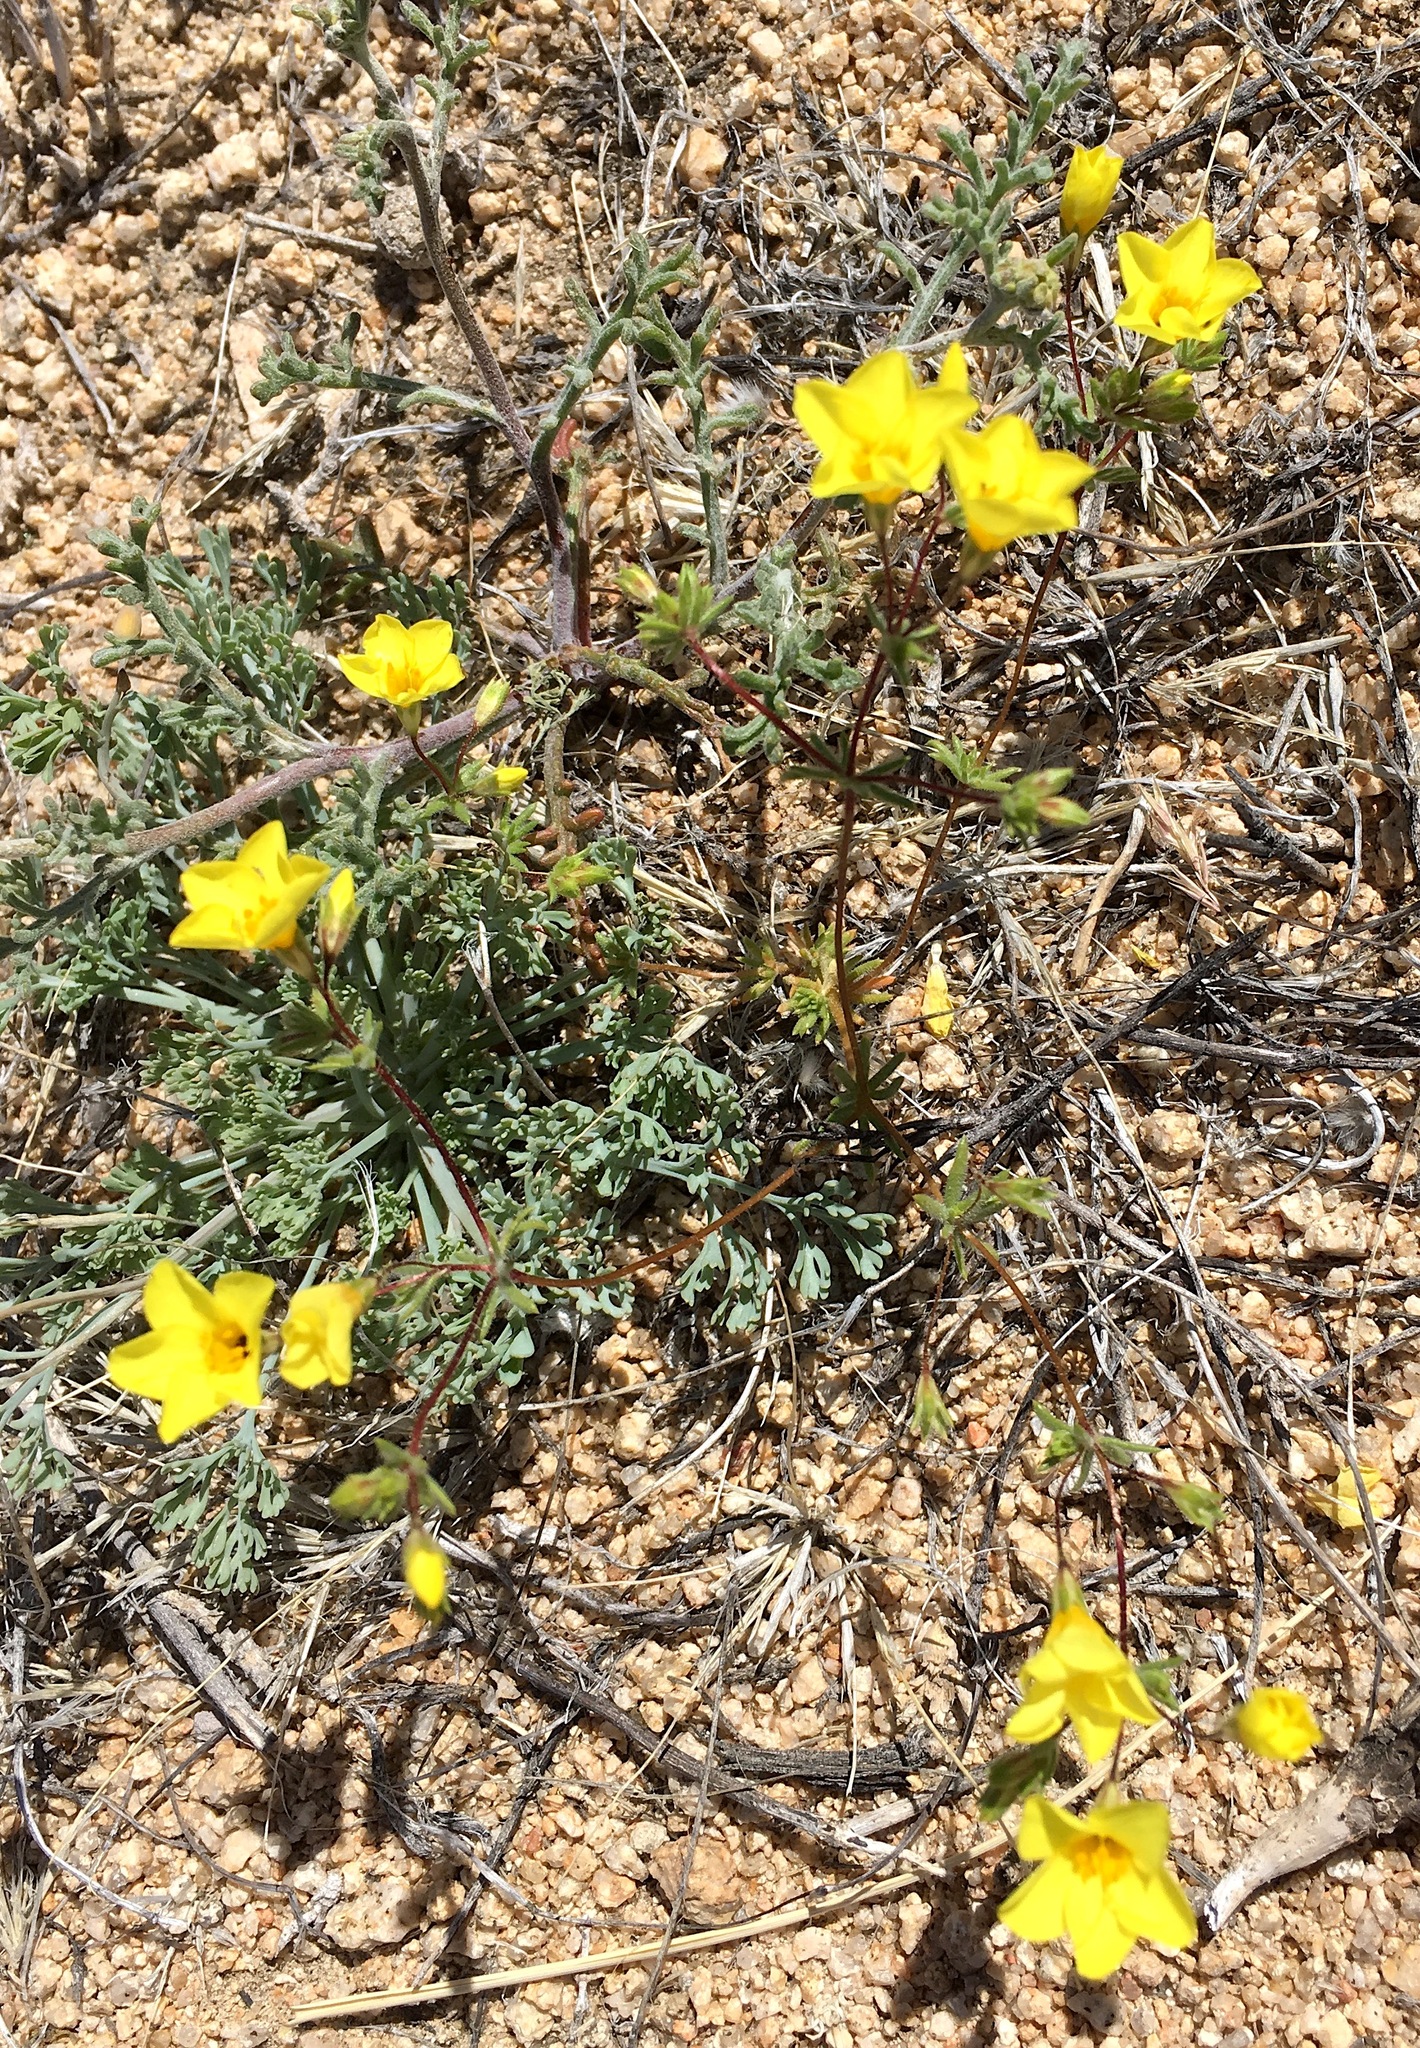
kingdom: Plantae
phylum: Tracheophyta
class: Magnoliopsida
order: Ericales
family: Polemoniaceae
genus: Leptosiphon
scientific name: Leptosiphon chrysanthus
